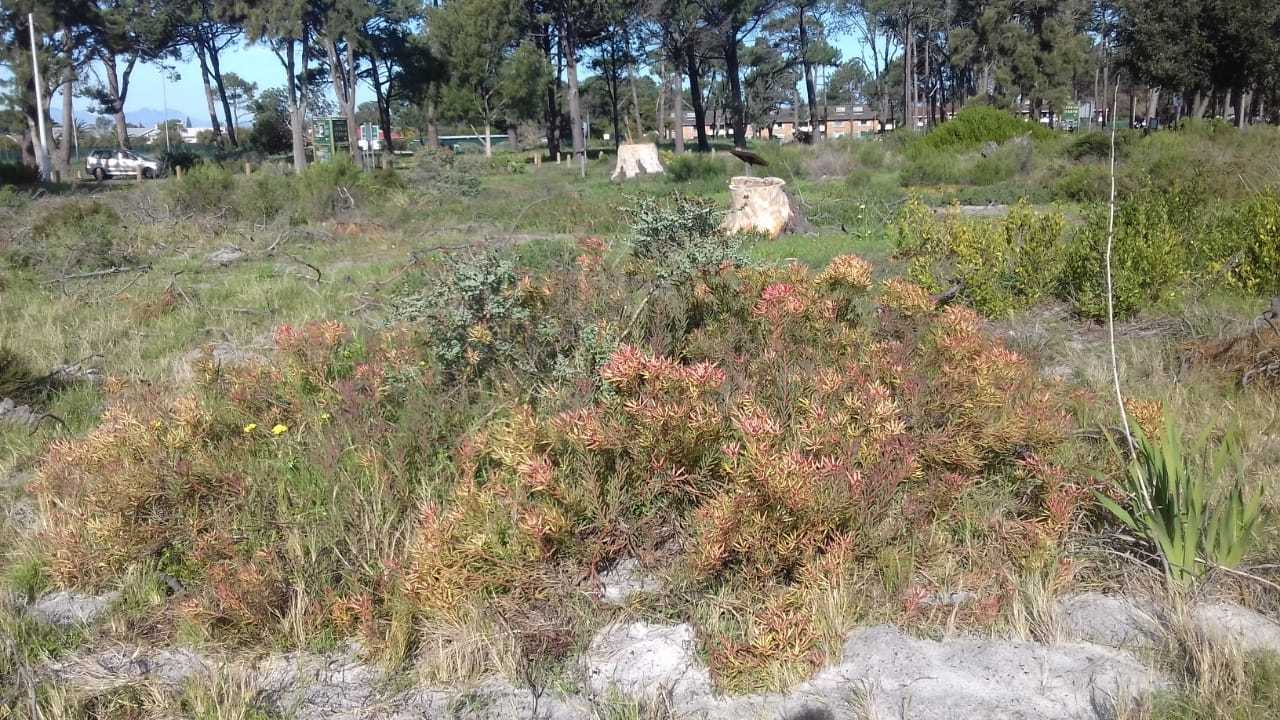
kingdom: Plantae
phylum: Tracheophyta
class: Magnoliopsida
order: Proteales
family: Proteaceae
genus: Leucadendron
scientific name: Leucadendron salignum
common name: Common sunshine conebush
